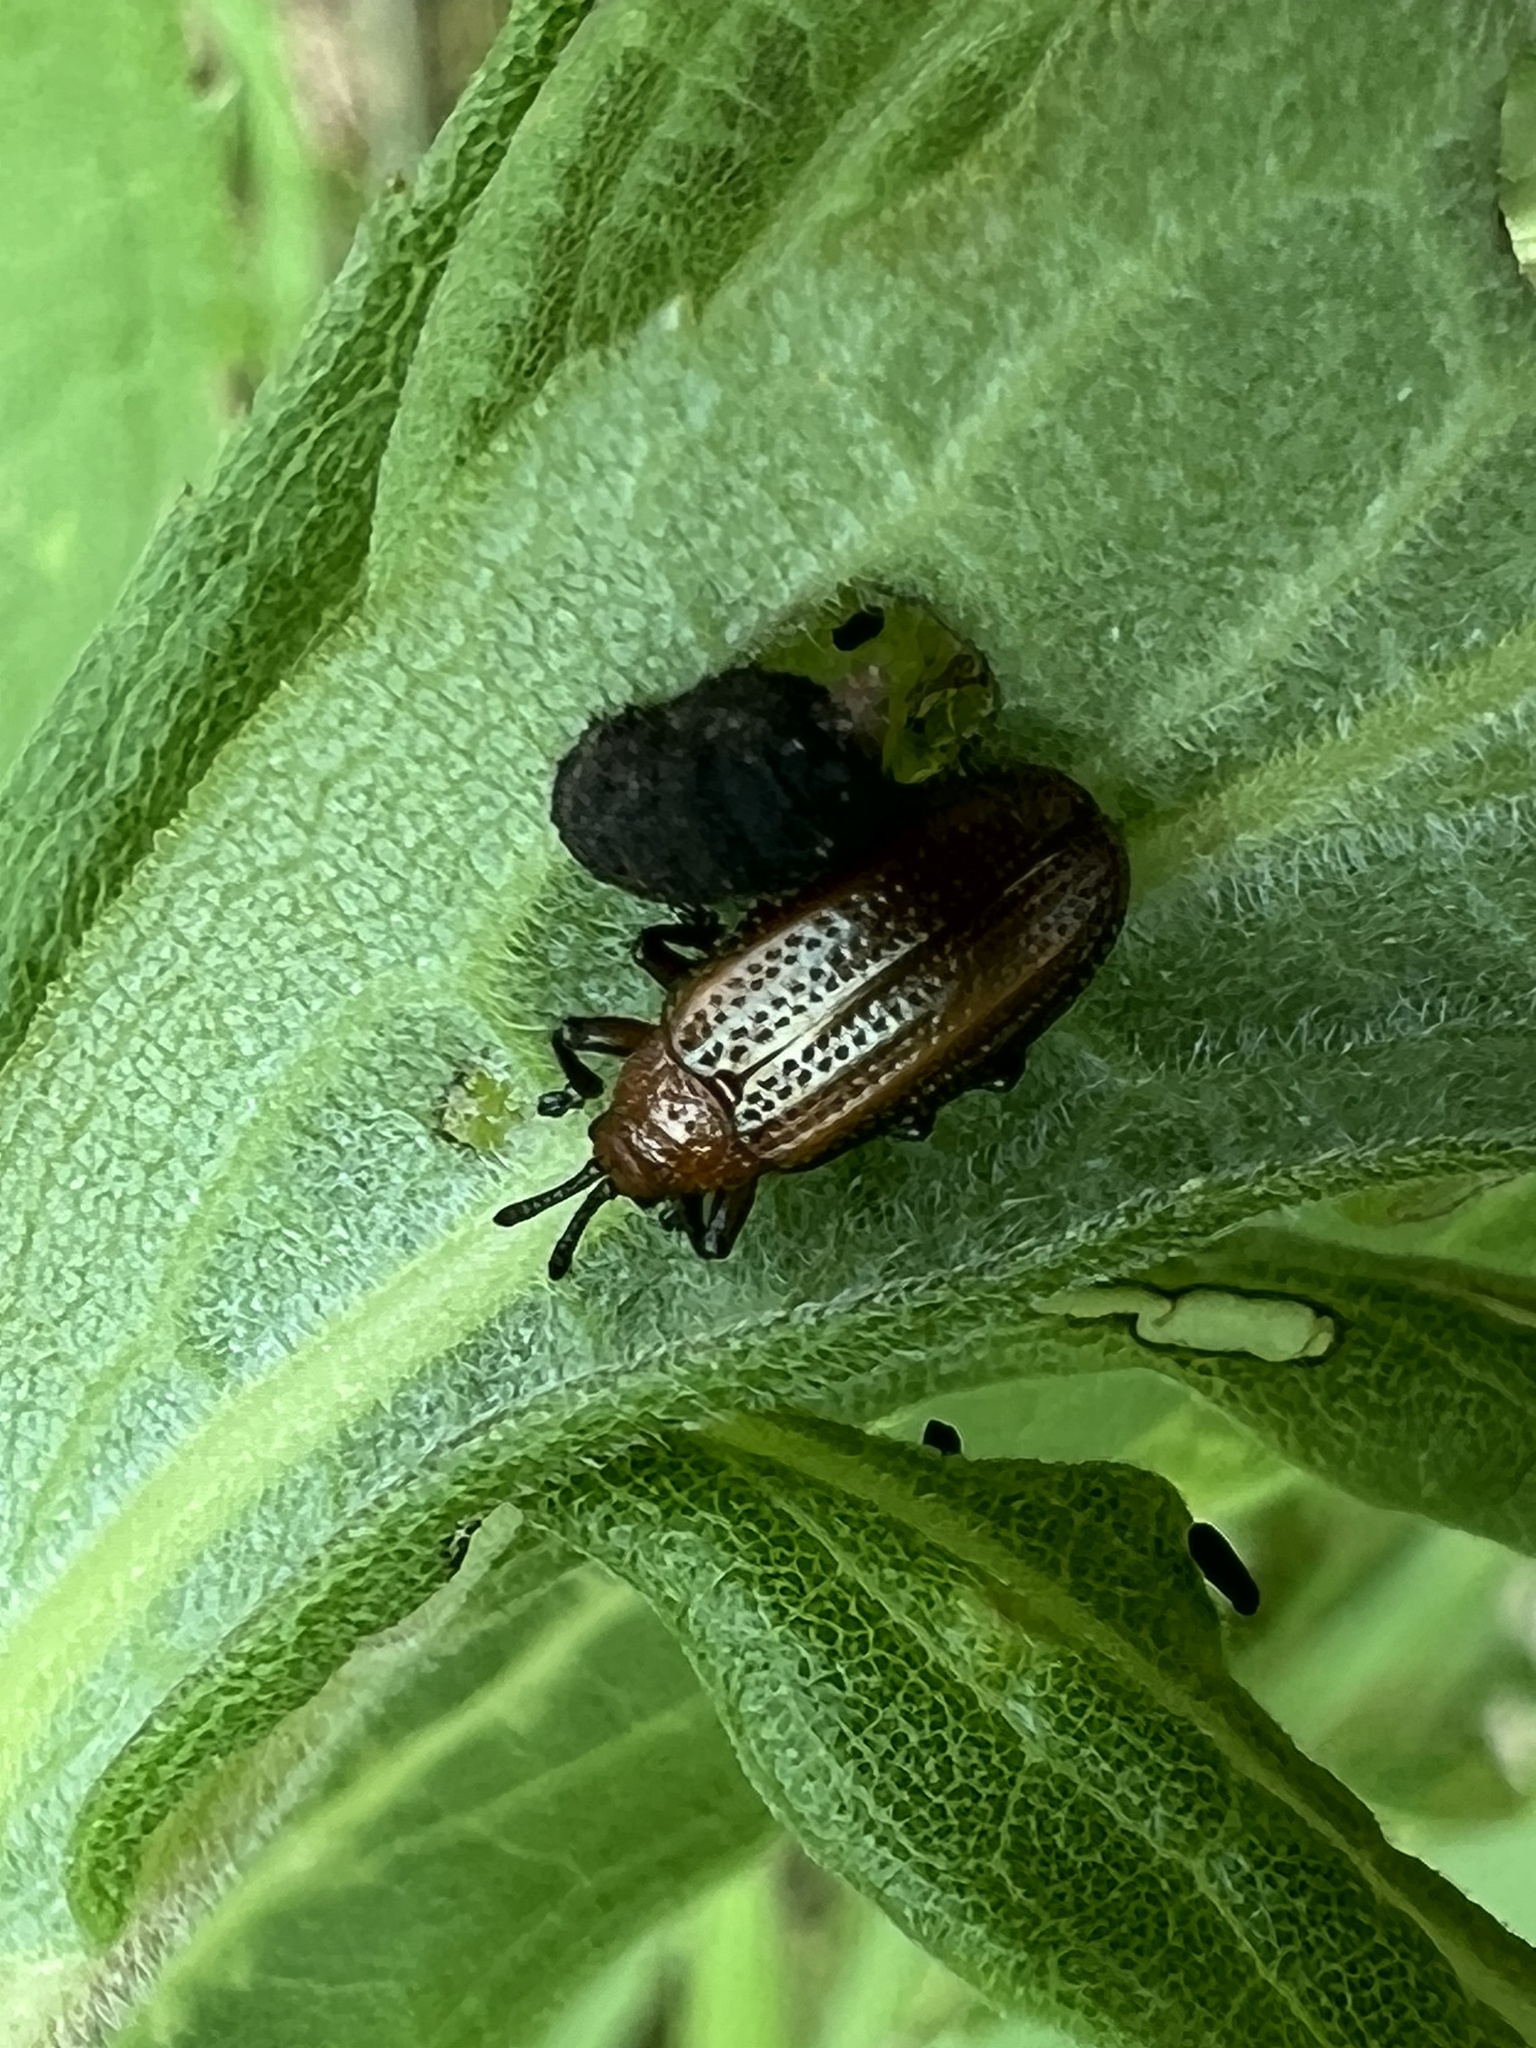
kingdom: Animalia
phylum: Arthropoda
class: Insecta
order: Coleoptera
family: Chrysomelidae
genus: Microrhopala
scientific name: Microrhopala vittata
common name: Goldenrod leaf miner beetle
